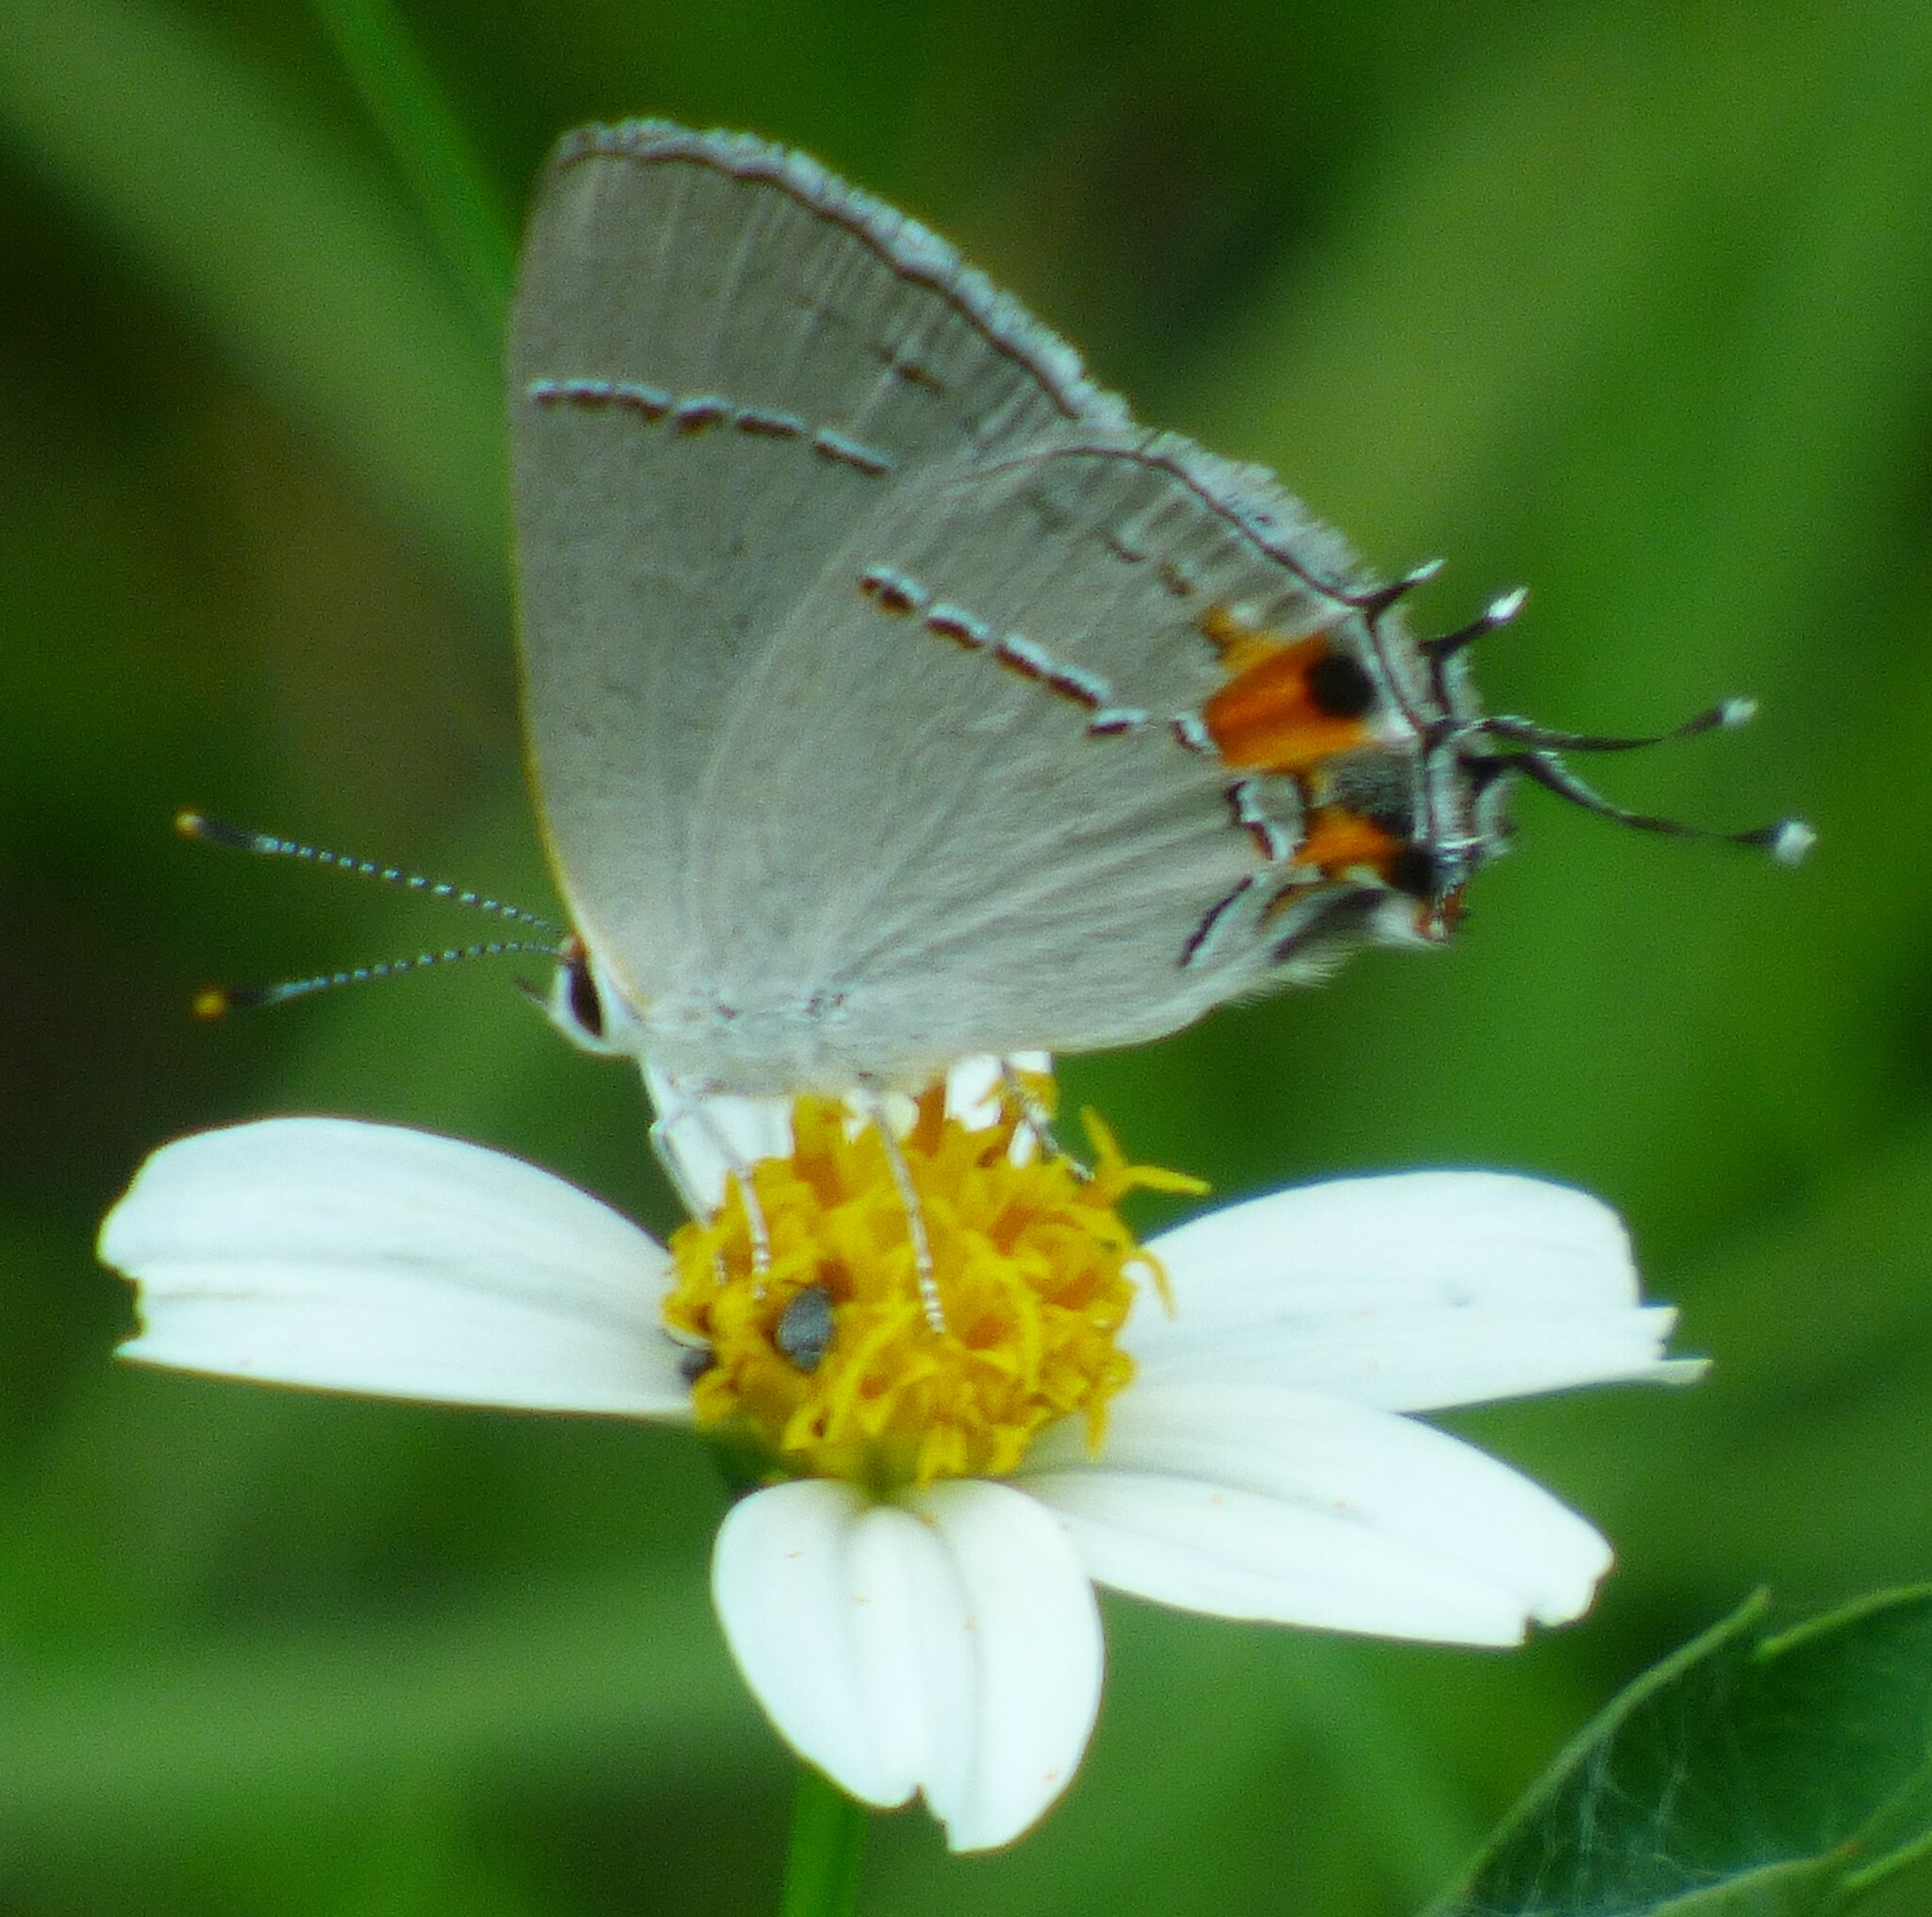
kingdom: Animalia
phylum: Arthropoda
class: Insecta
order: Lepidoptera
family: Lycaenidae
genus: Strymon
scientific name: Strymon melinus
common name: Gray hairstreak
